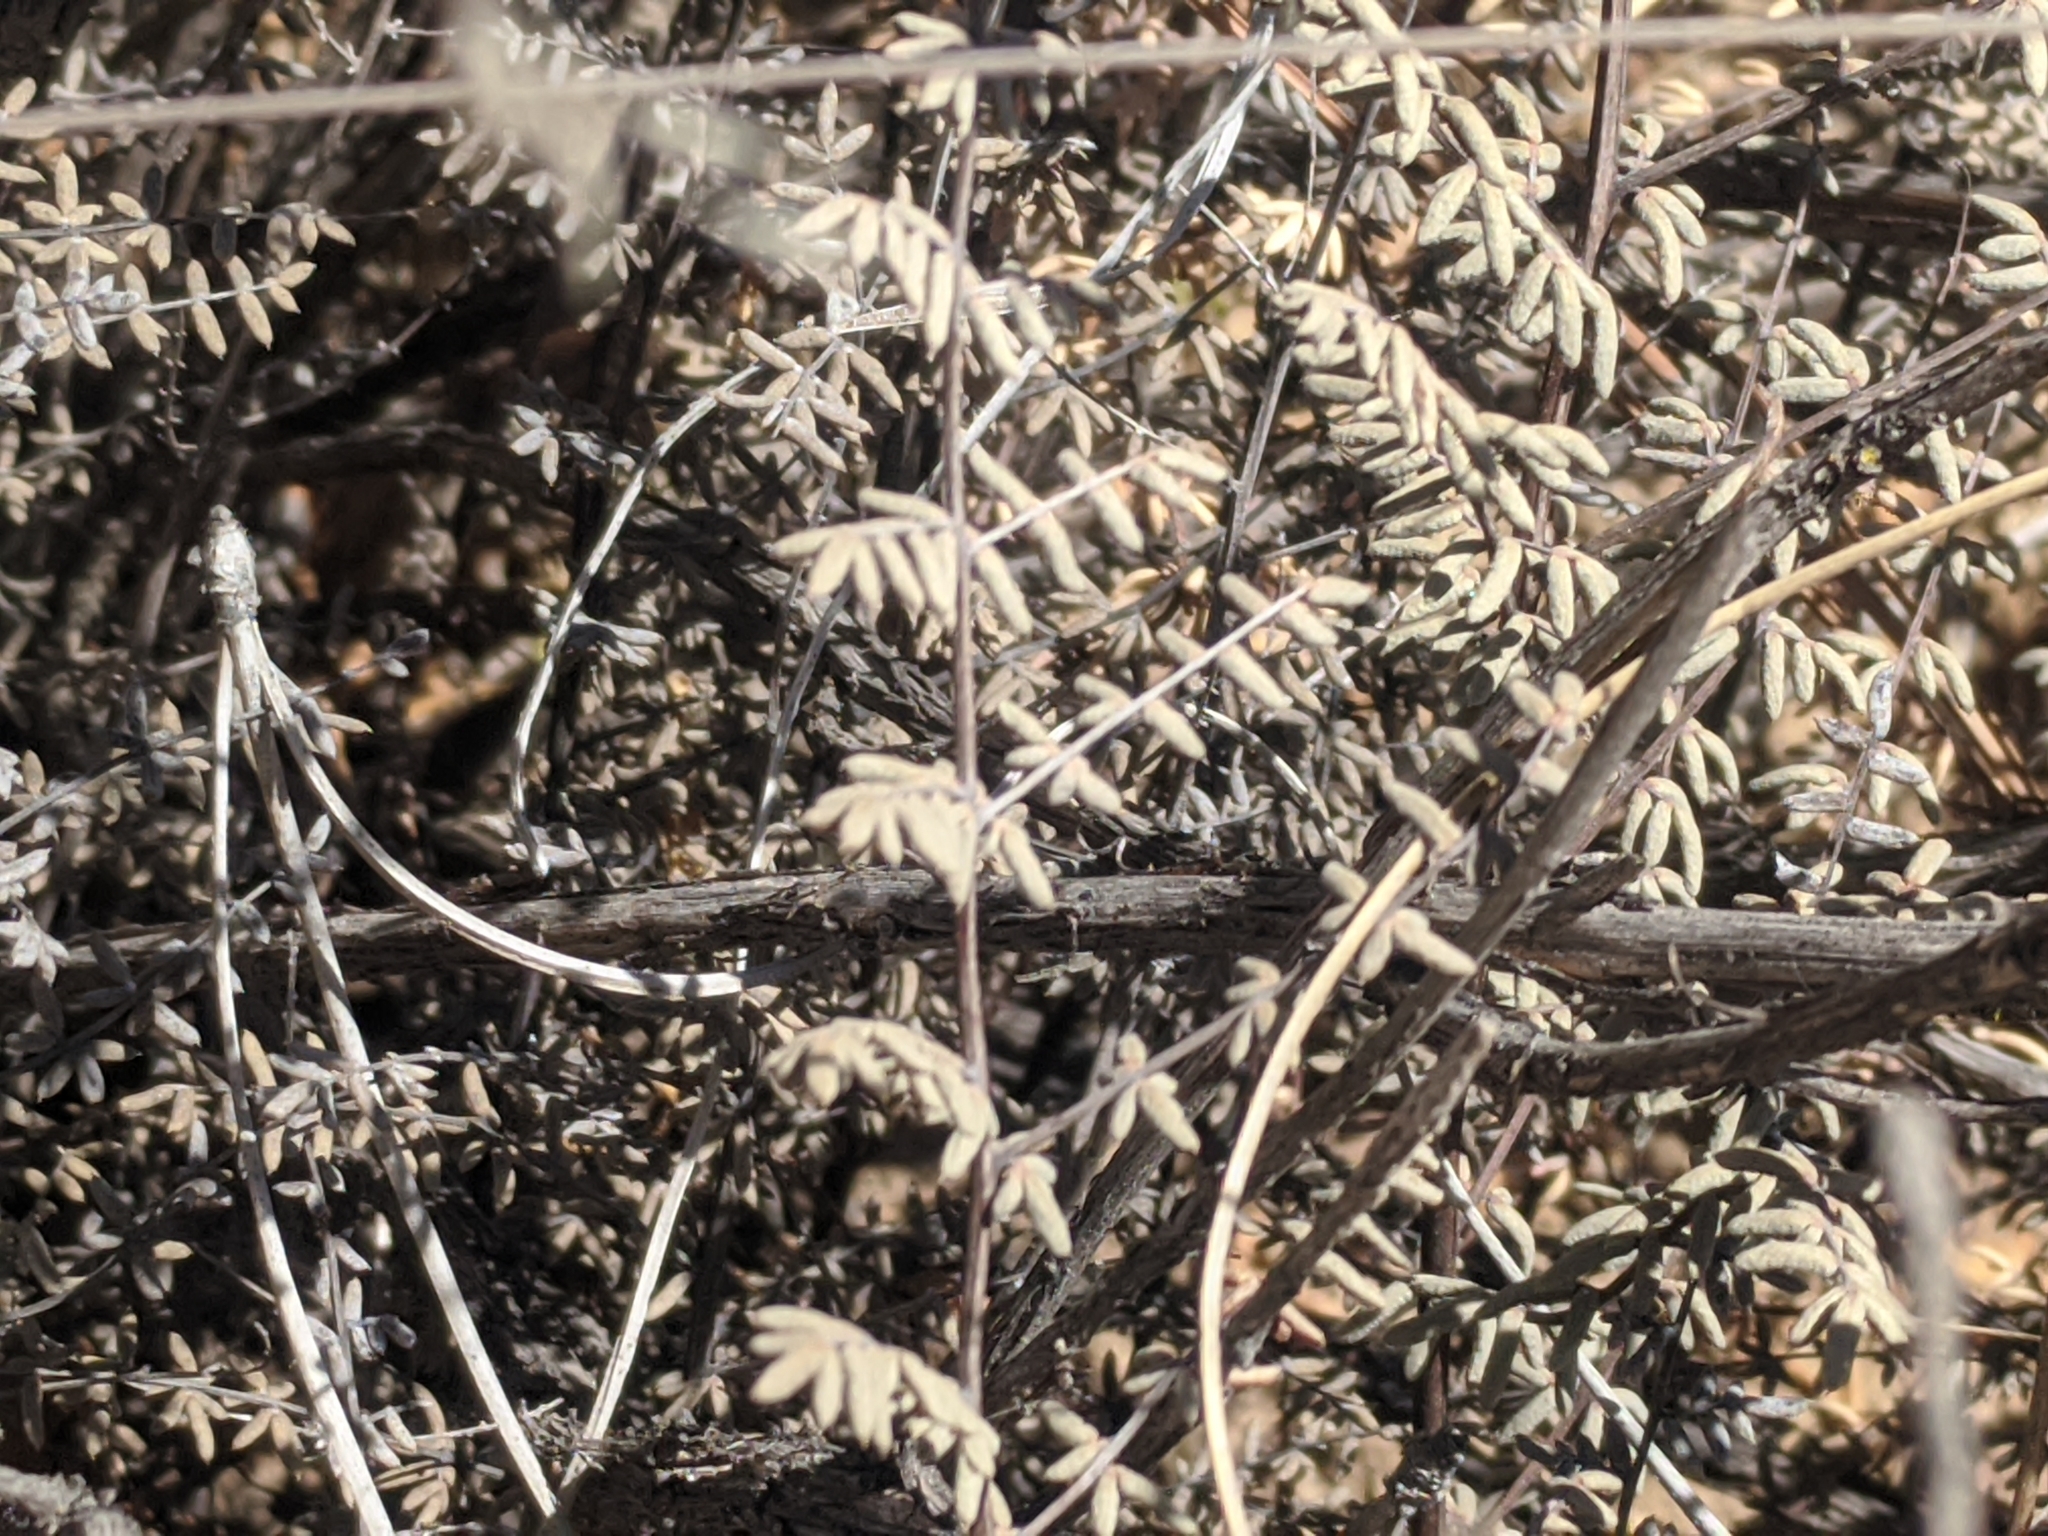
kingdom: Plantae
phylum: Tracheophyta
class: Polypodiopsida
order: Polypodiales
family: Pteridaceae
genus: Pellaea
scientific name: Pellaea mucronata
